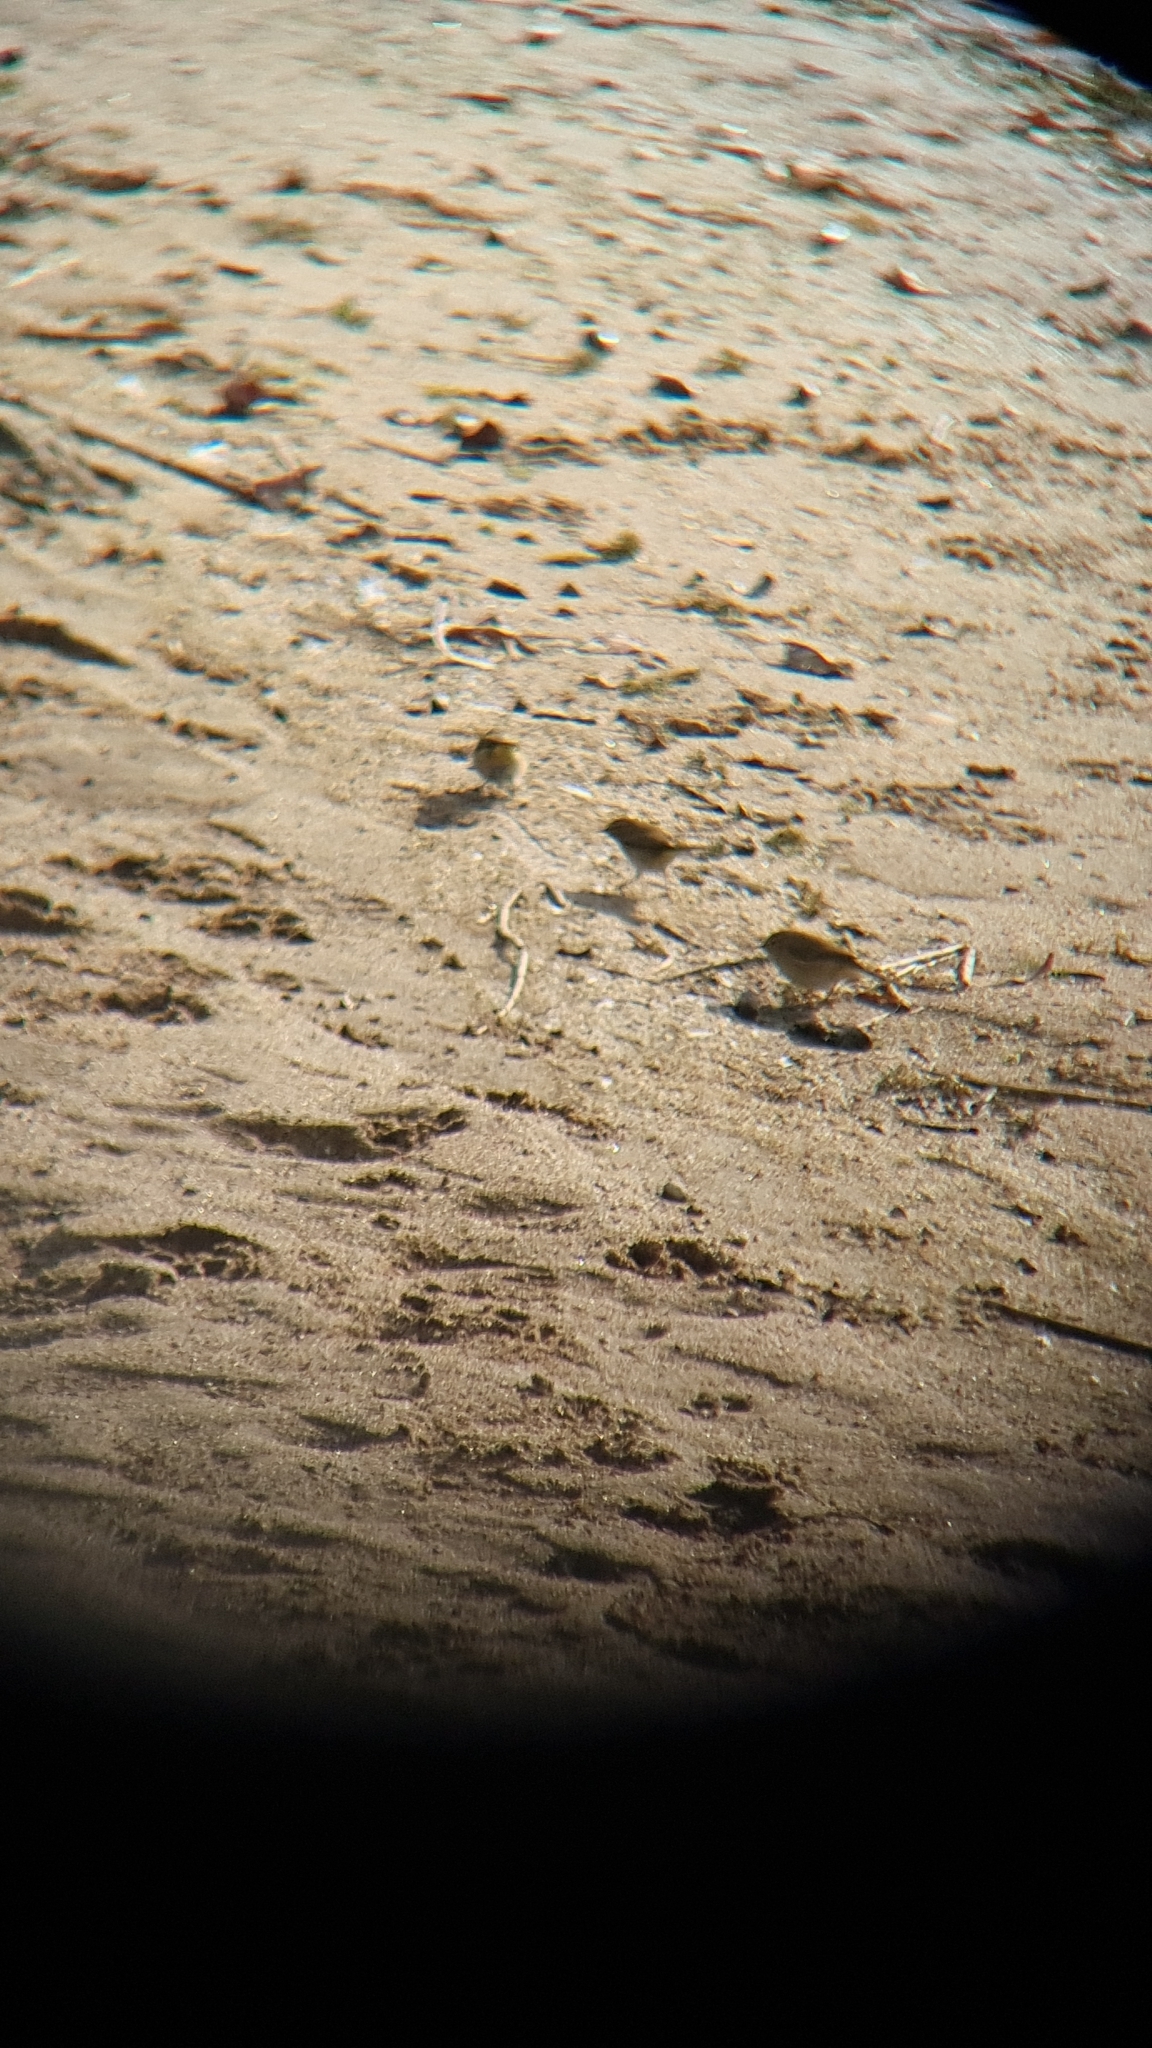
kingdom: Animalia
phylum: Chordata
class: Aves
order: Passeriformes
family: Phylloscopidae
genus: Phylloscopus
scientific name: Phylloscopus collybita
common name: Common chiffchaff
